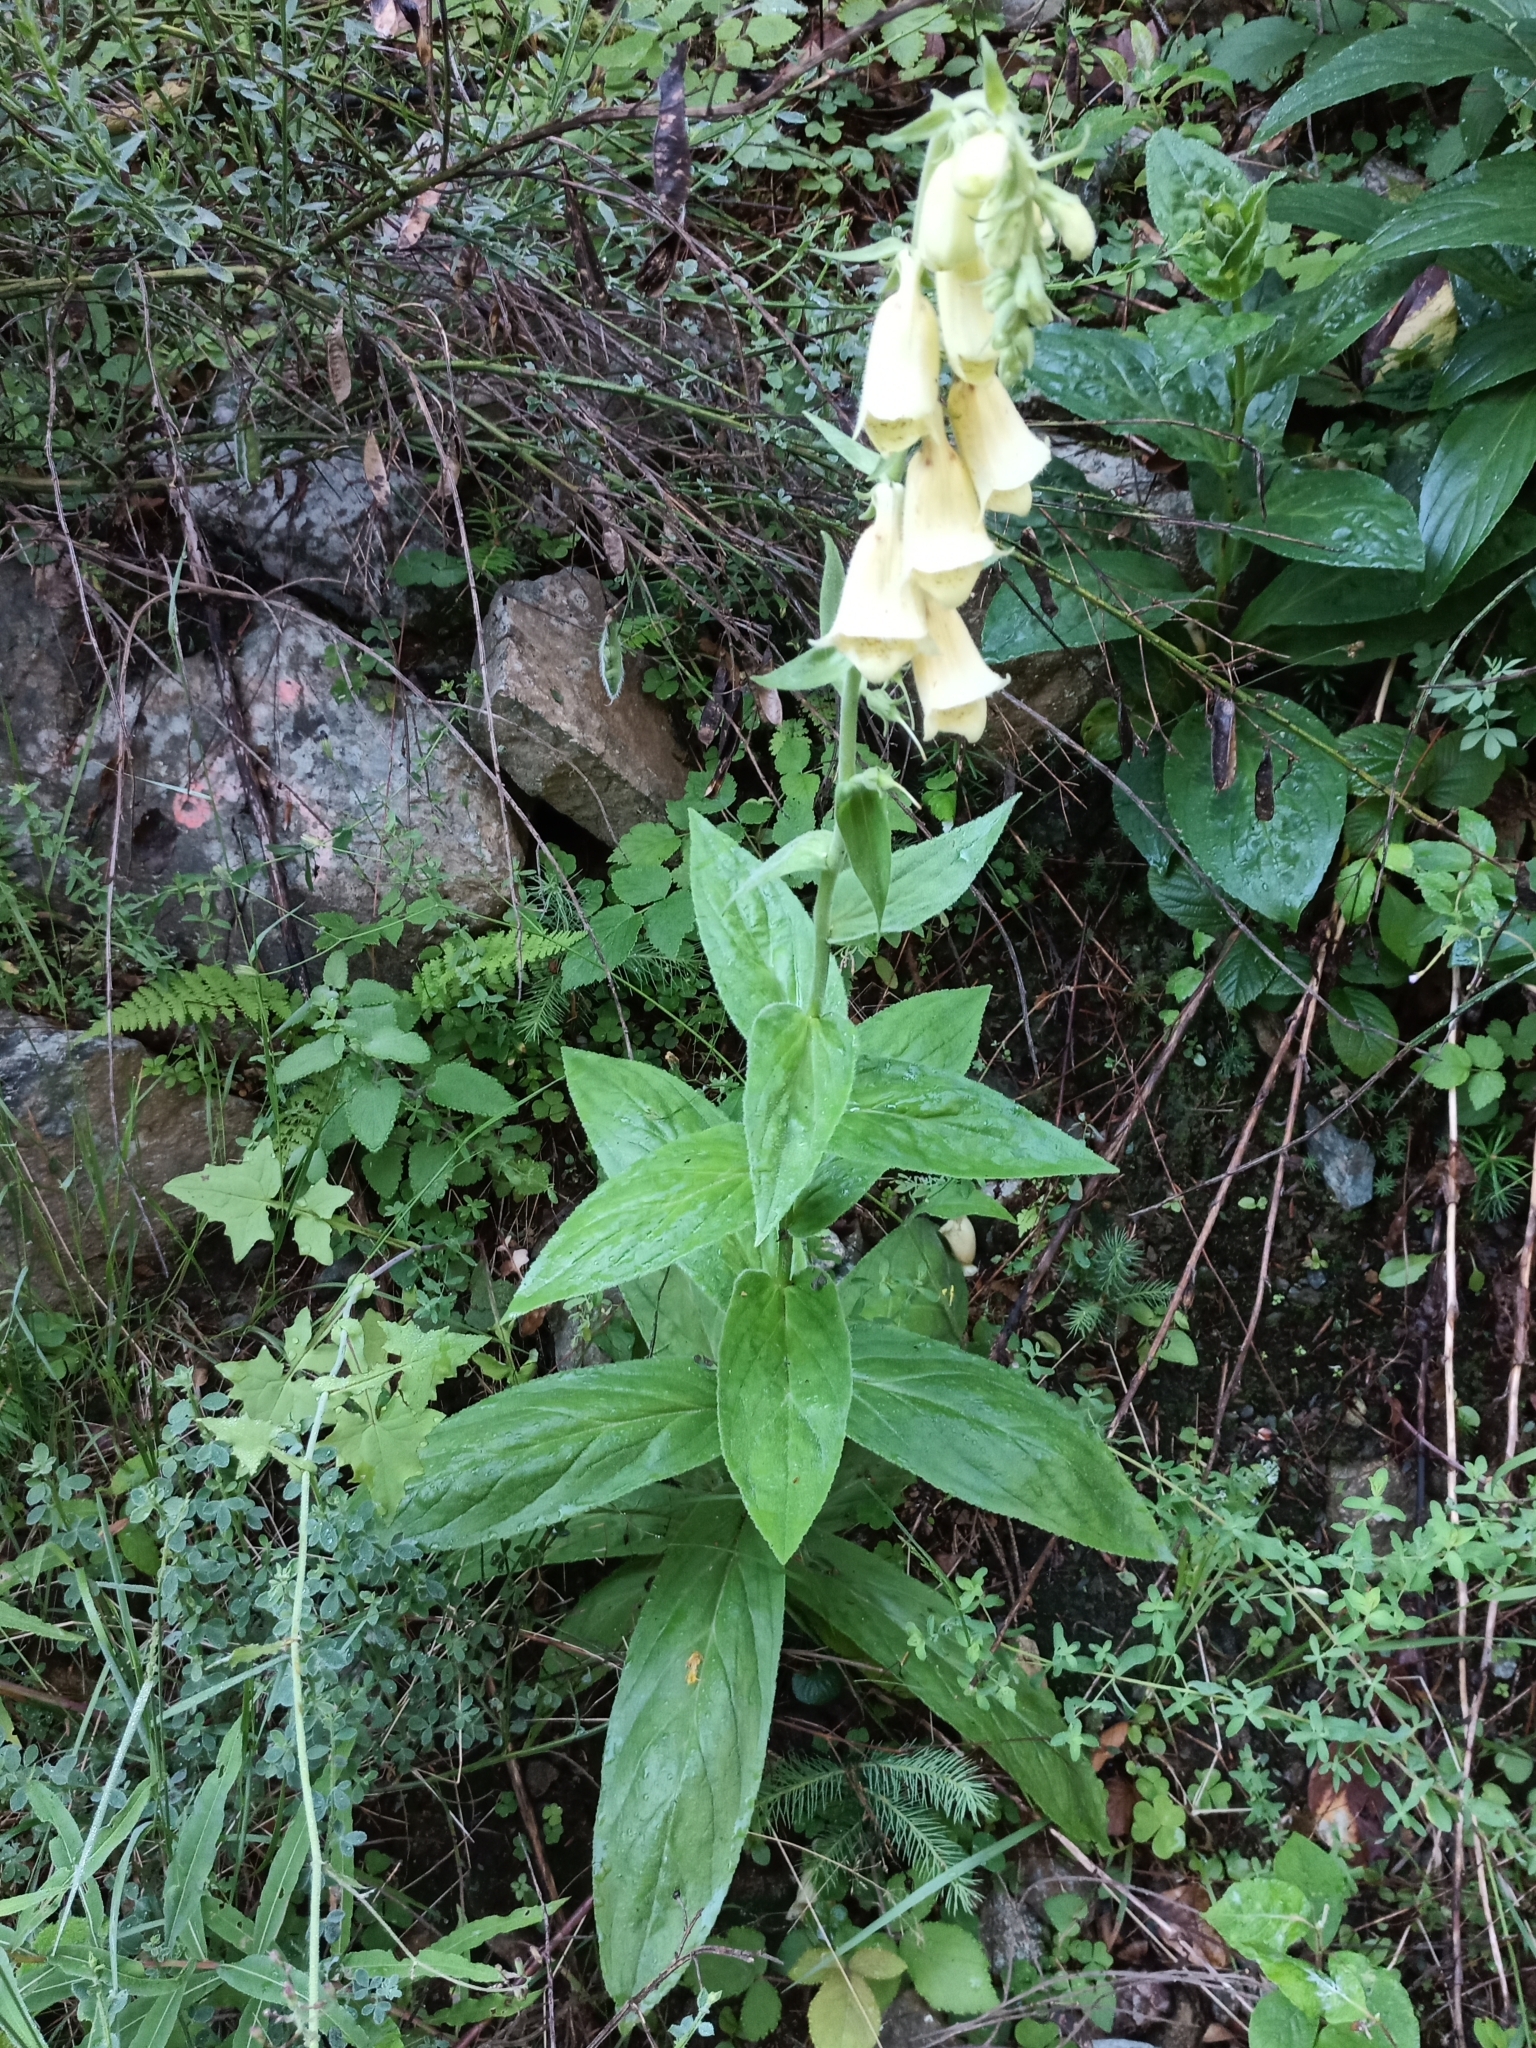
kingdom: Plantae
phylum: Tracheophyta
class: Magnoliopsida
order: Lamiales
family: Plantaginaceae
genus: Digitalis
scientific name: Digitalis grandiflora
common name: Yellow foxglove
